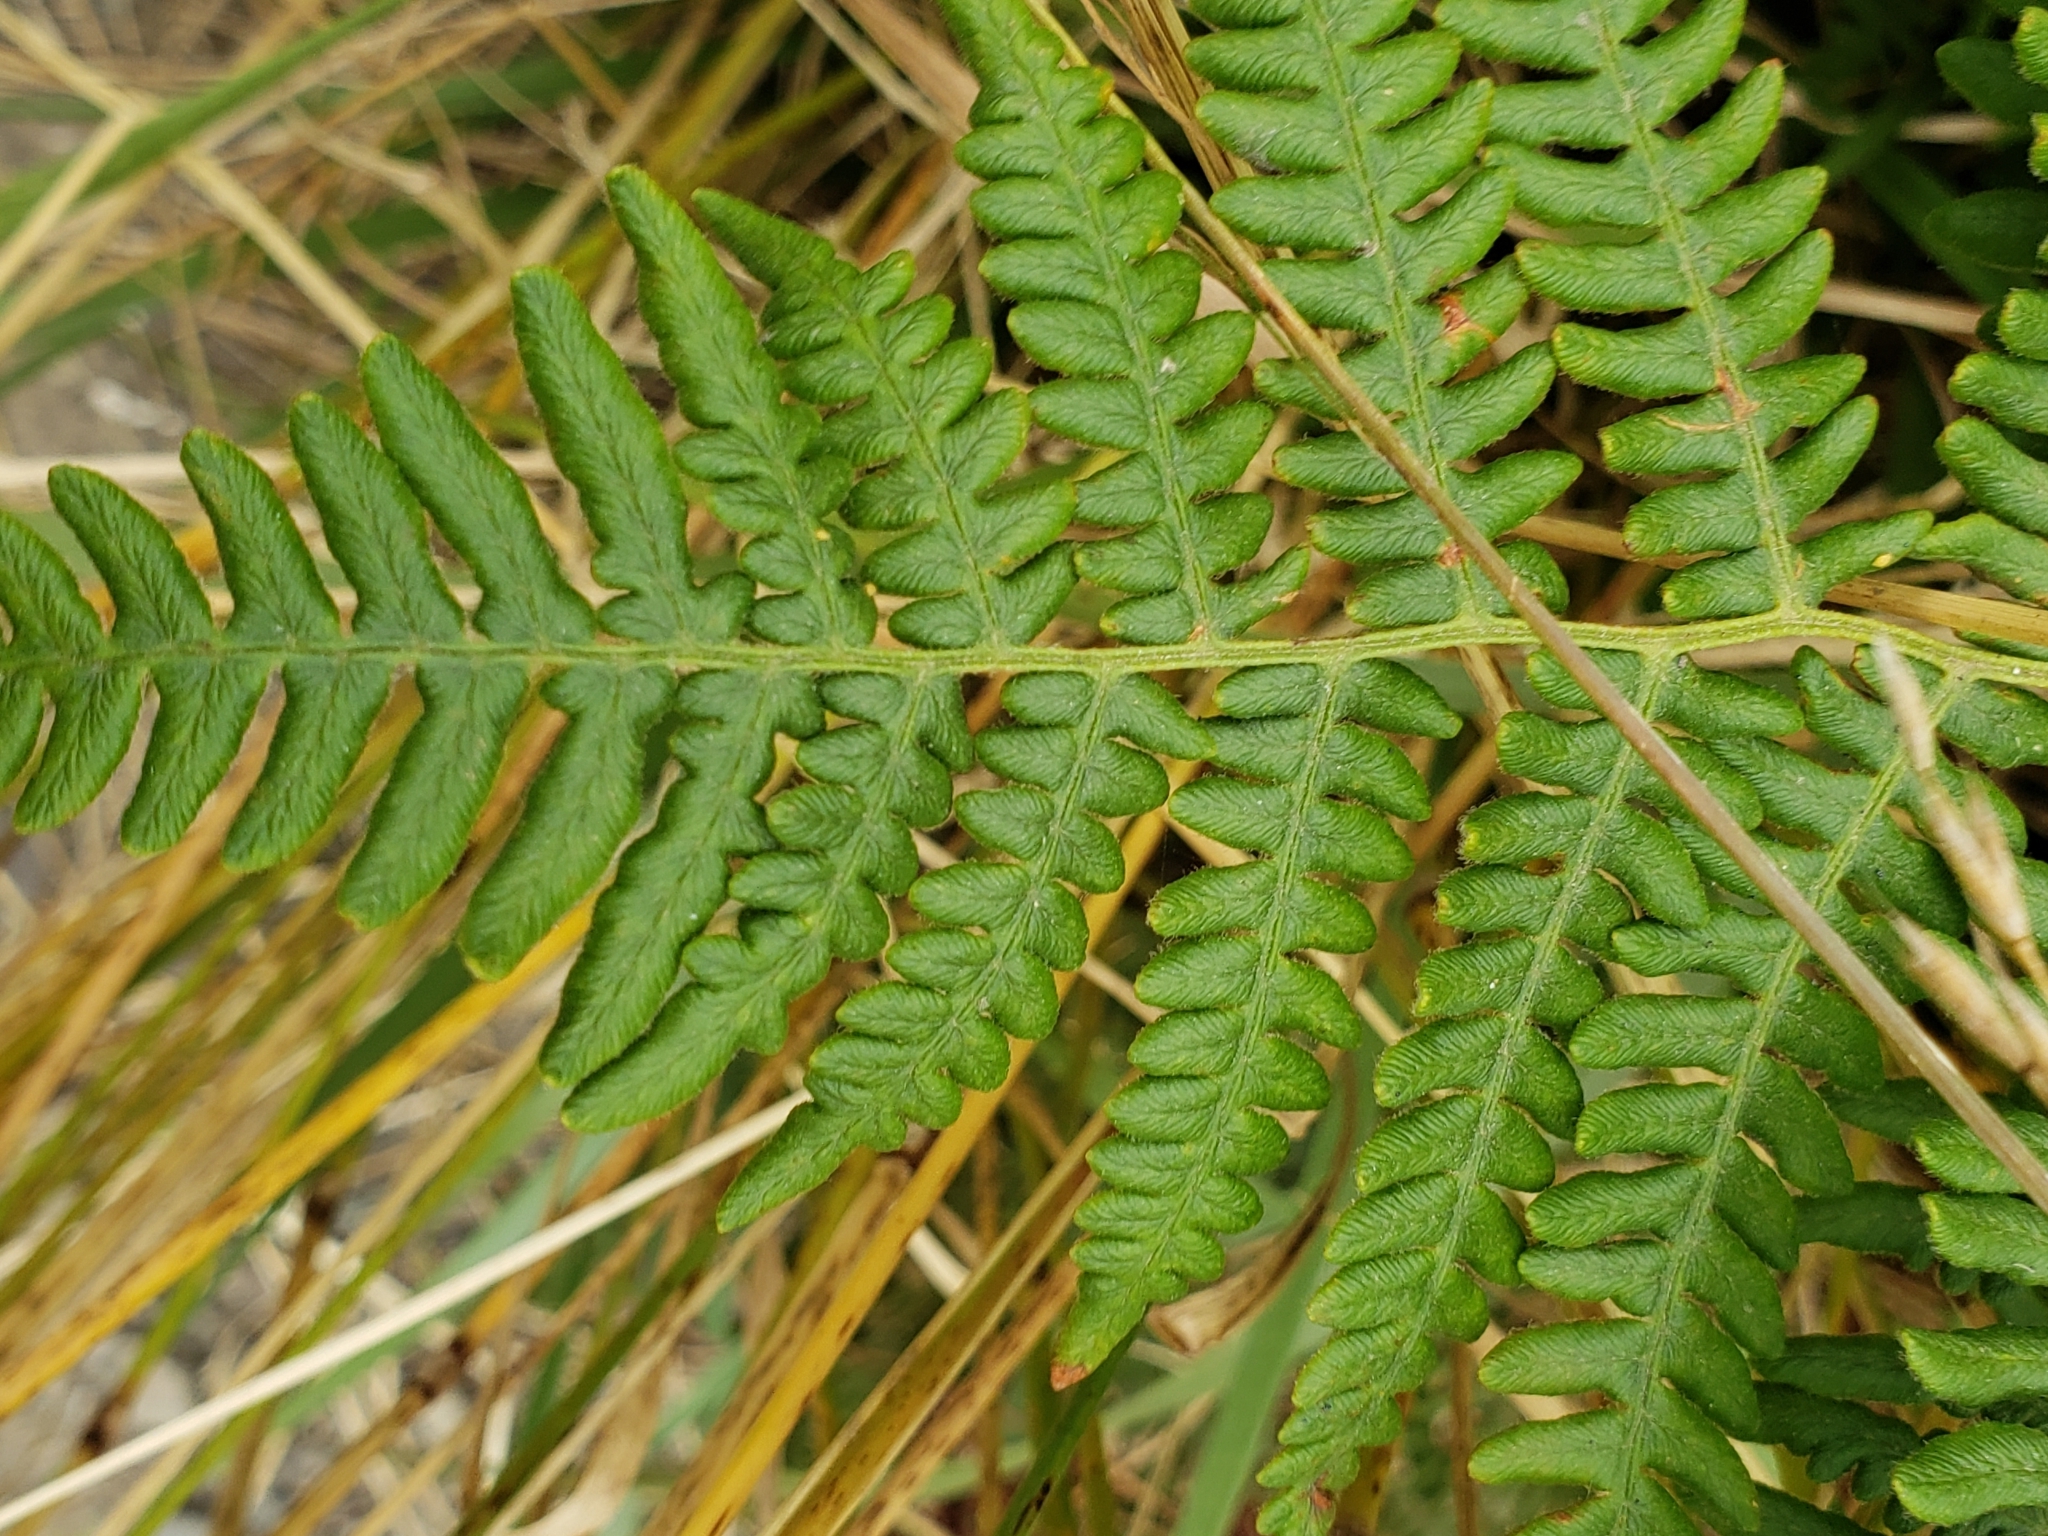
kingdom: Plantae
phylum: Tracheophyta
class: Polypodiopsida
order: Polypodiales
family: Dennstaedtiaceae
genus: Pteridium
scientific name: Pteridium aquilinum
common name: Bracken
